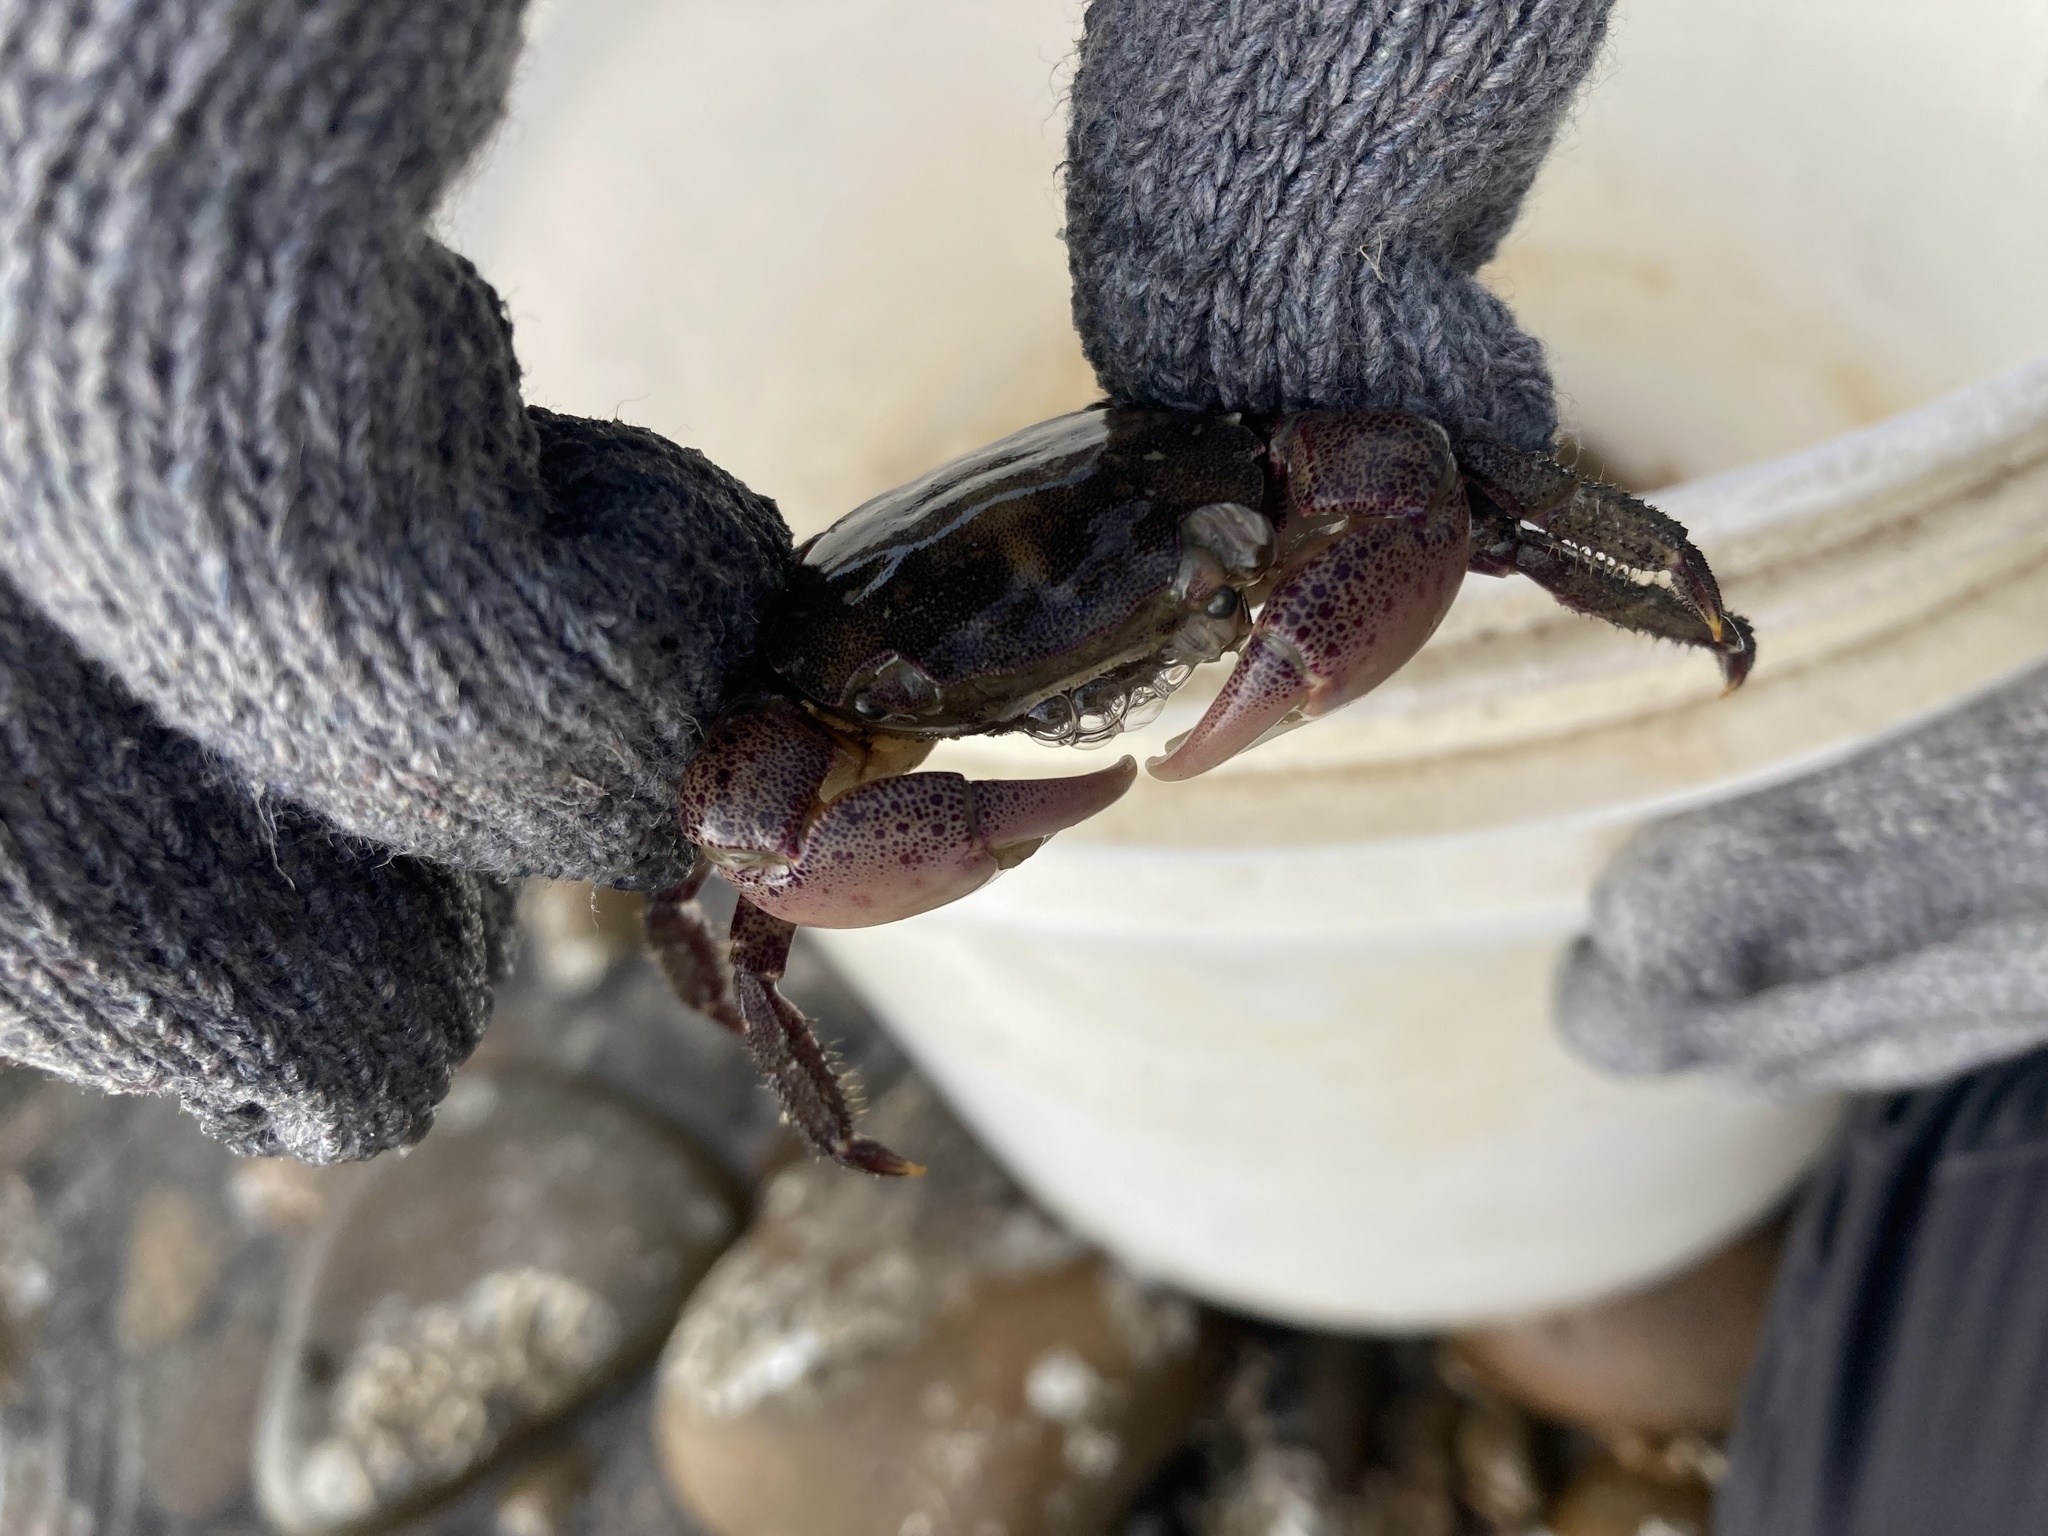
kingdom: Animalia
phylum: Arthropoda
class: Malacostraca
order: Decapoda
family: Varunidae
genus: Hemigrapsus
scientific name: Hemigrapsus sanguineus
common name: Asian shore crab
